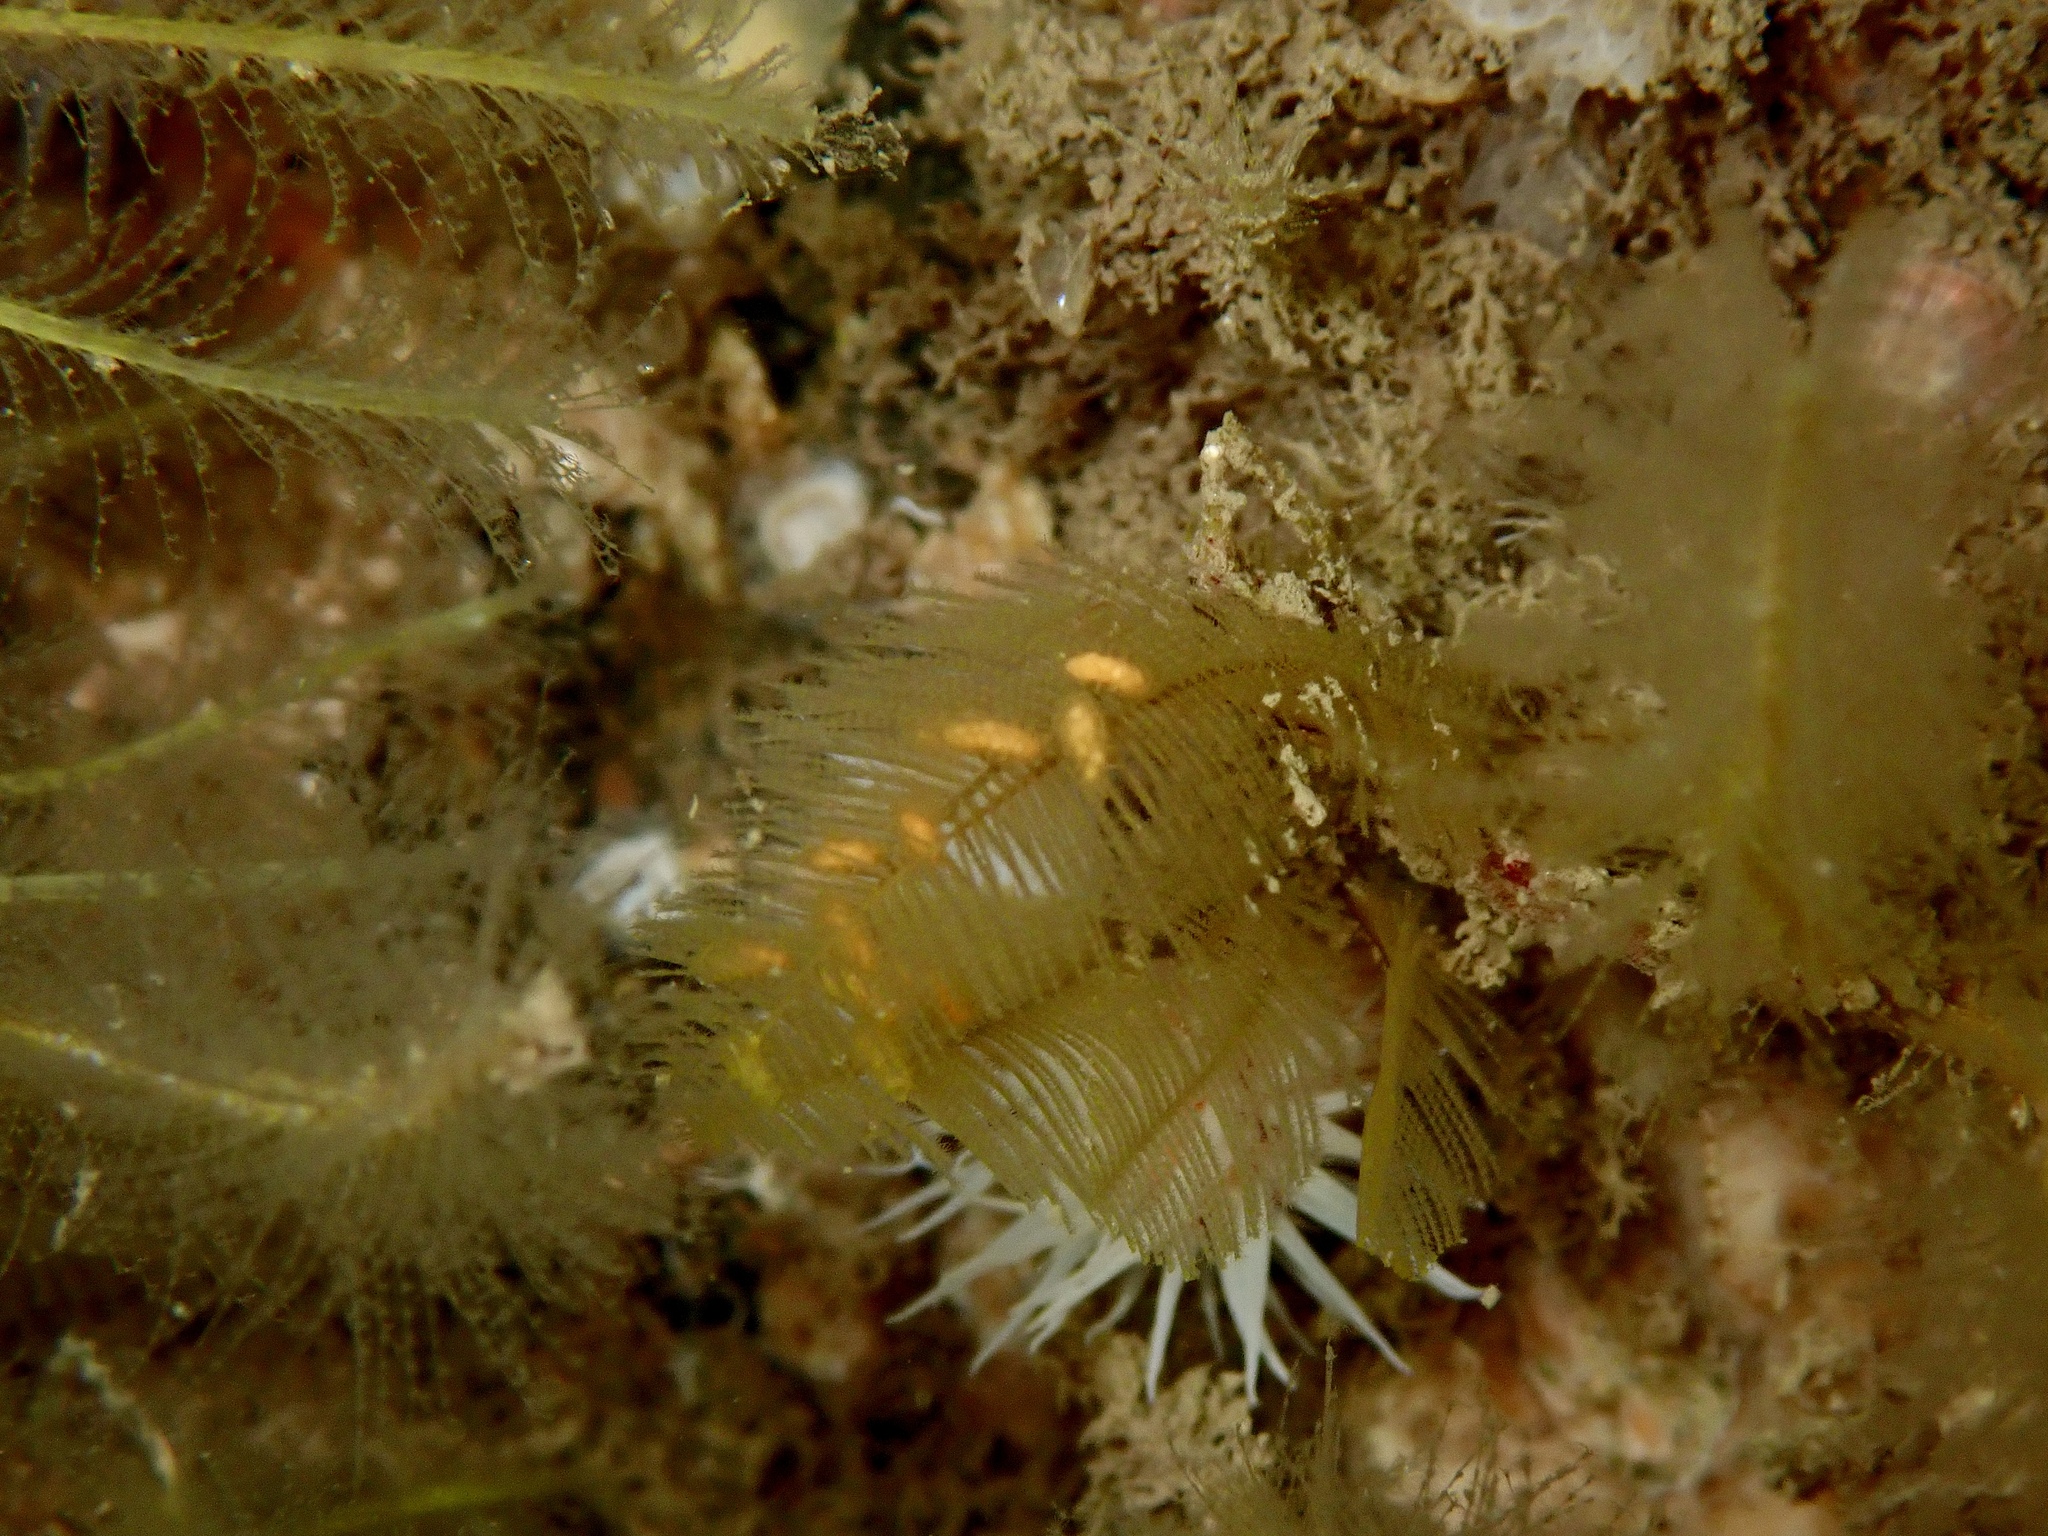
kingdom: Animalia
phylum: Cnidaria
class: Hydrozoa
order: Leptothecata
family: Aglaopheniidae
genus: Aglaophenia
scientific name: Aglaophenia tubulifera
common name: Plume hydroid
